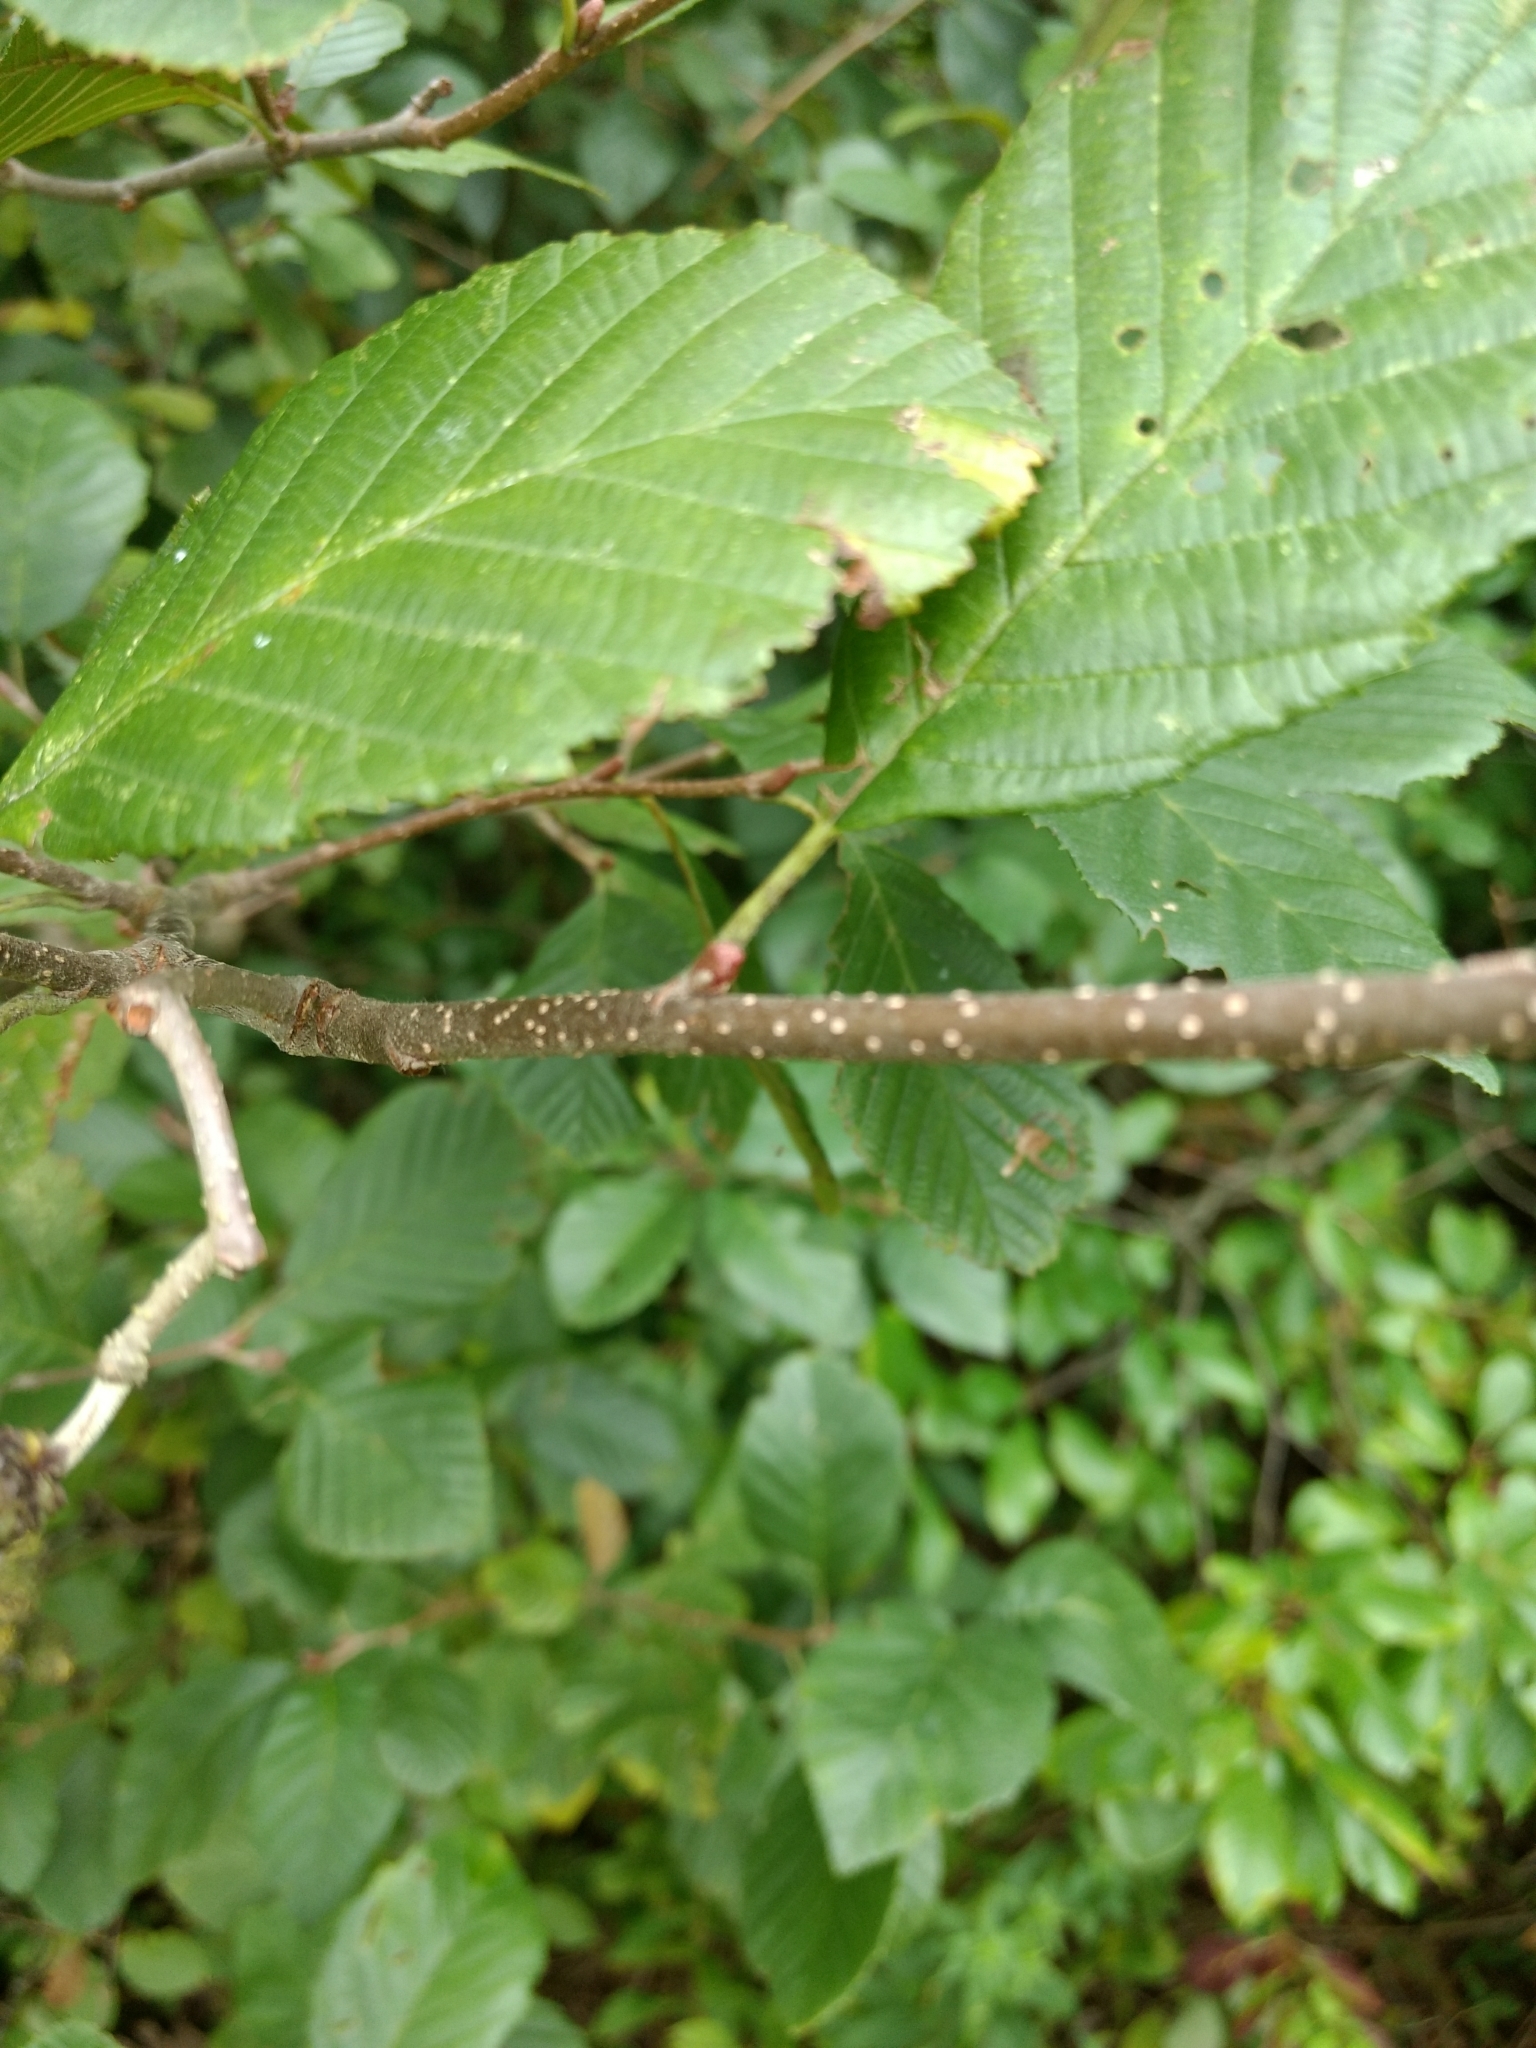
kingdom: Plantae
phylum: Tracheophyta
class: Magnoliopsida
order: Fagales
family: Betulaceae
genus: Alnus
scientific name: Alnus incana
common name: Grey alder
